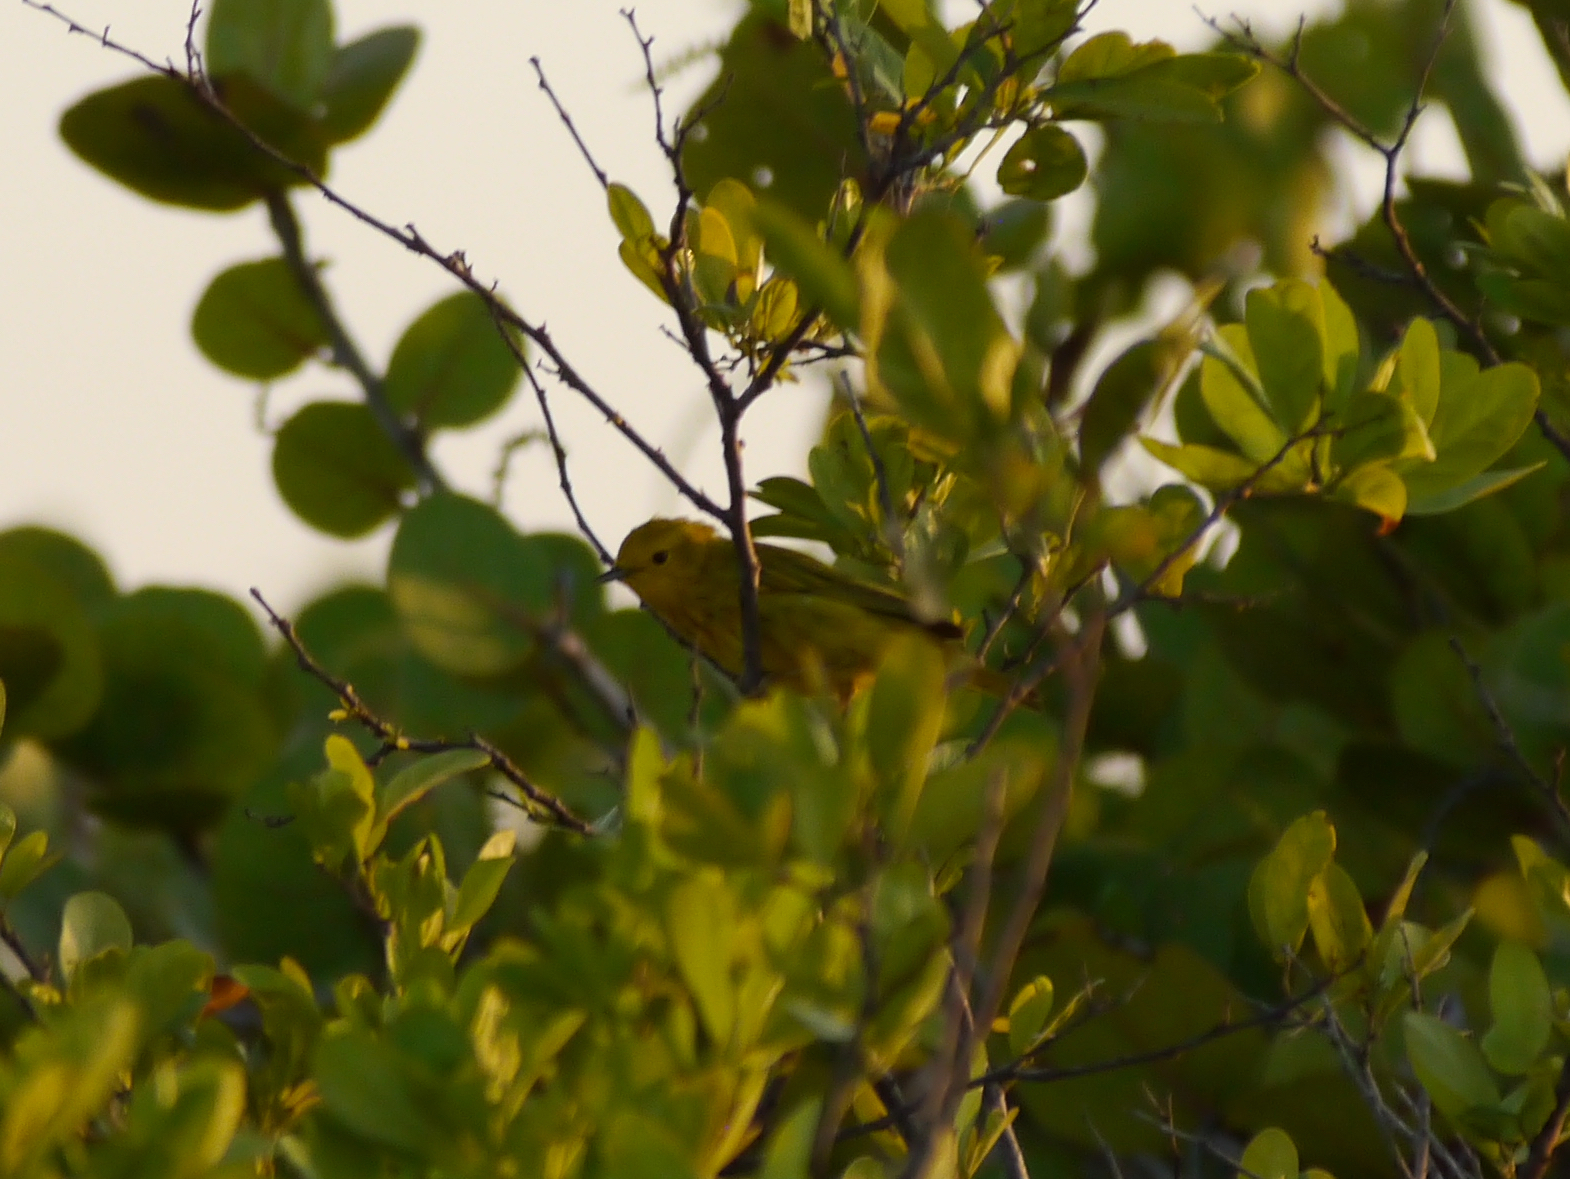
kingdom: Animalia
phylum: Chordata
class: Aves
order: Passeriformes
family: Parulidae
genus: Setophaga
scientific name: Setophaga petechia
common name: Yellow warbler
